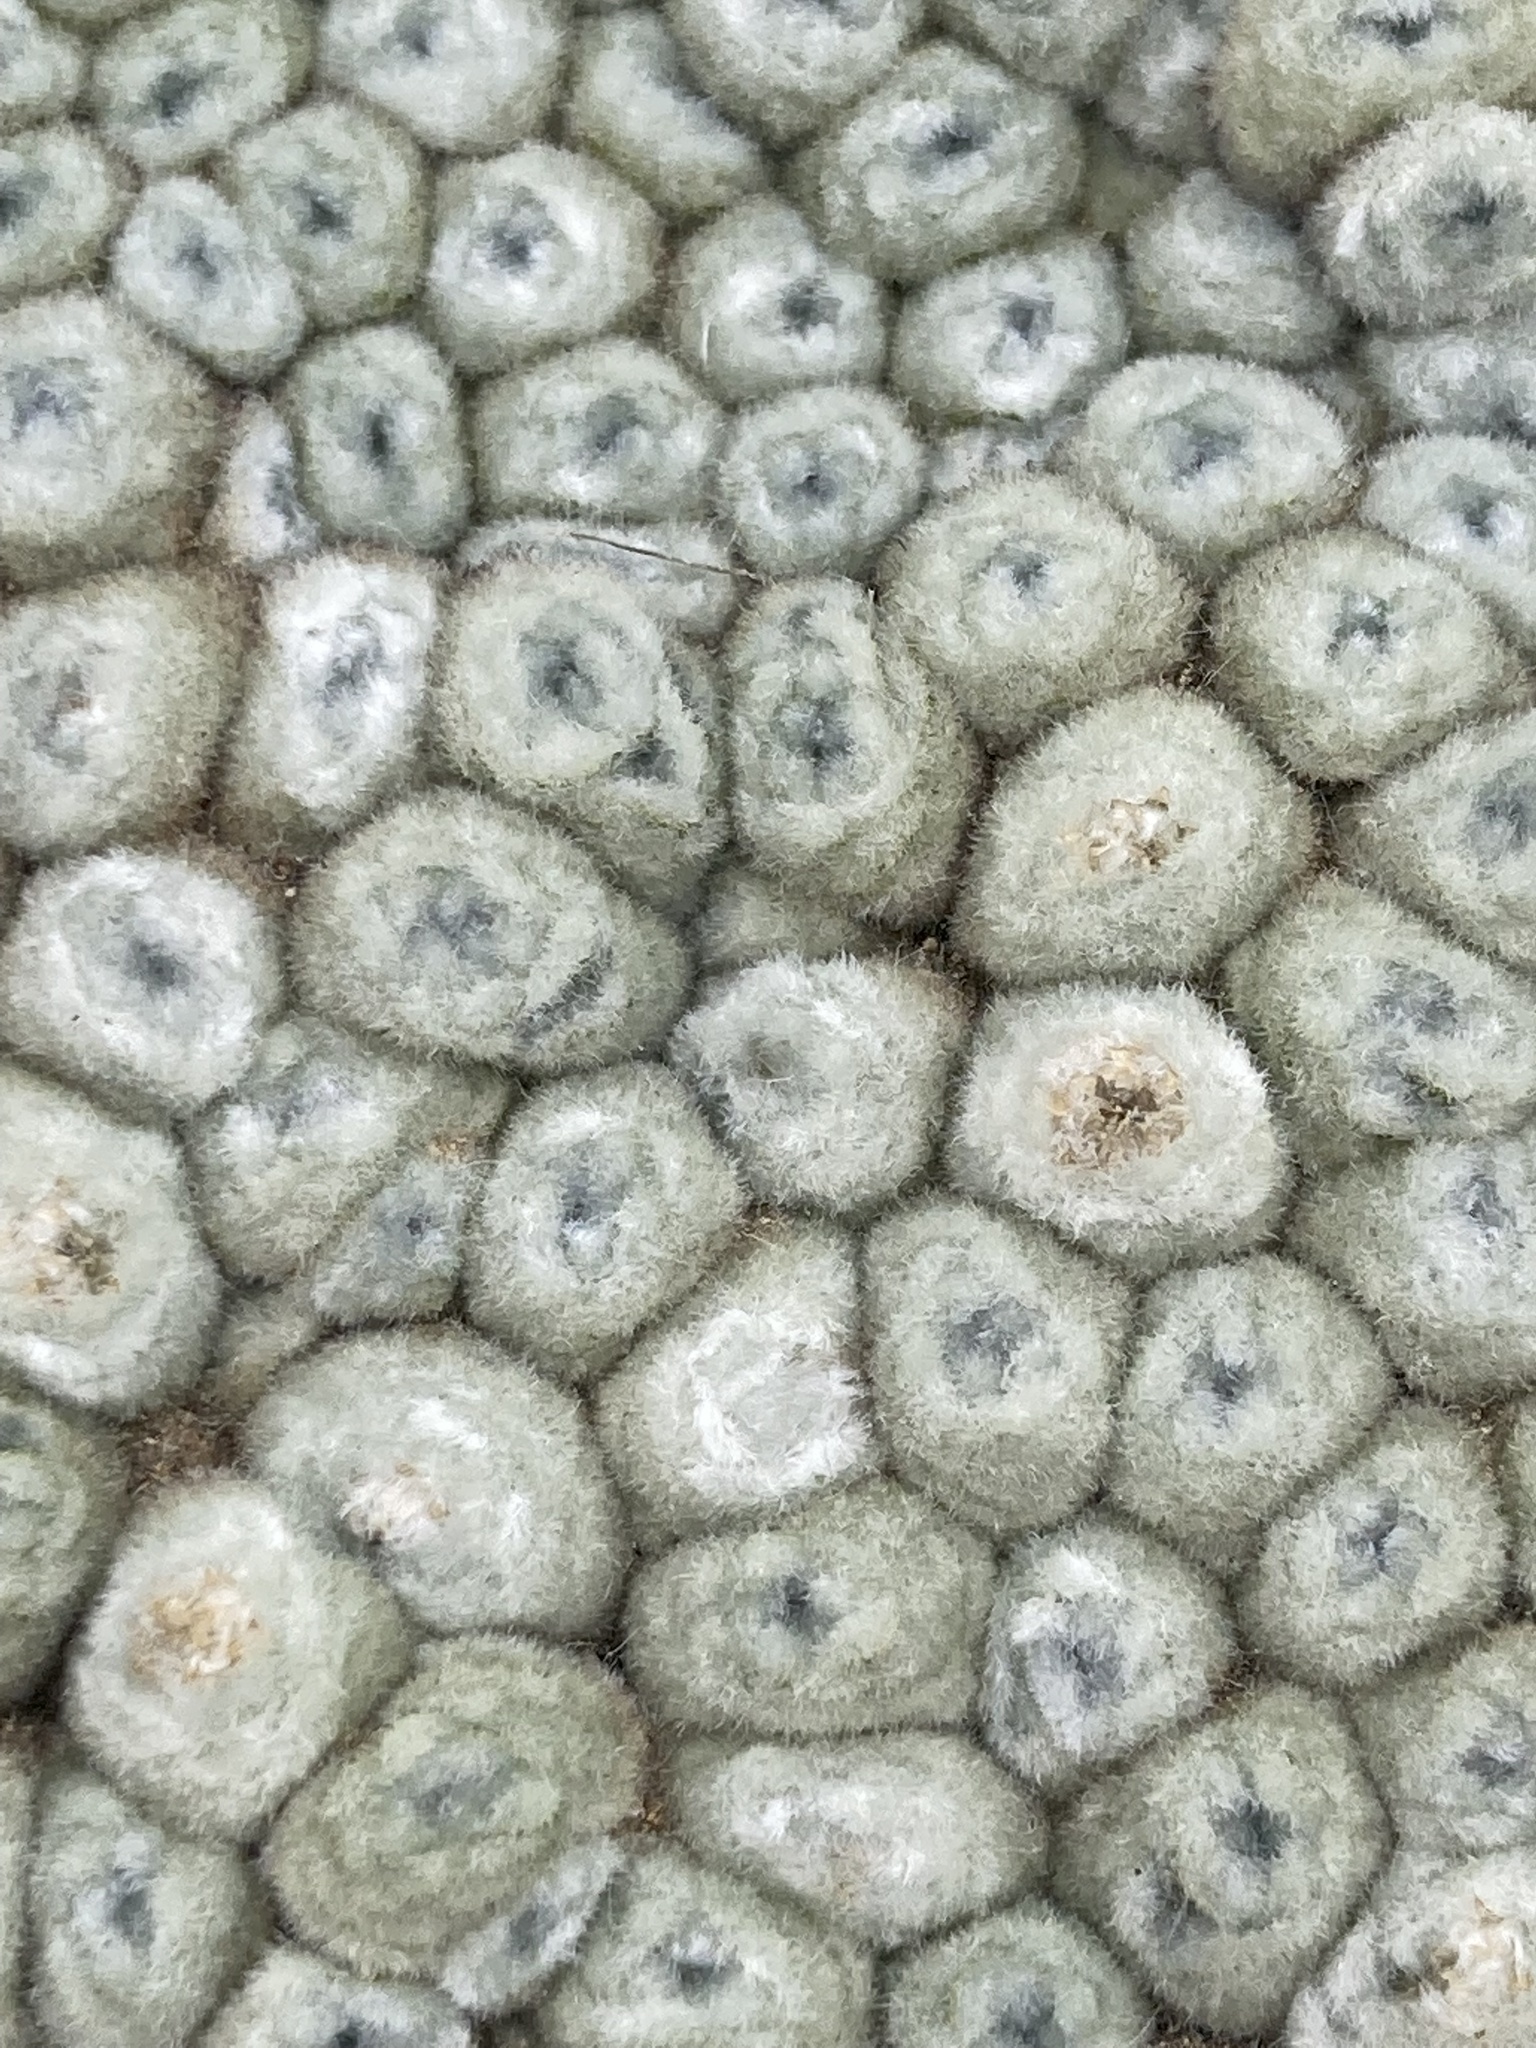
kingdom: Plantae
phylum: Tracheophyta
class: Magnoliopsida
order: Asterales
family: Asteraceae
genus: Raoulia
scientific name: Raoulia buchananii
